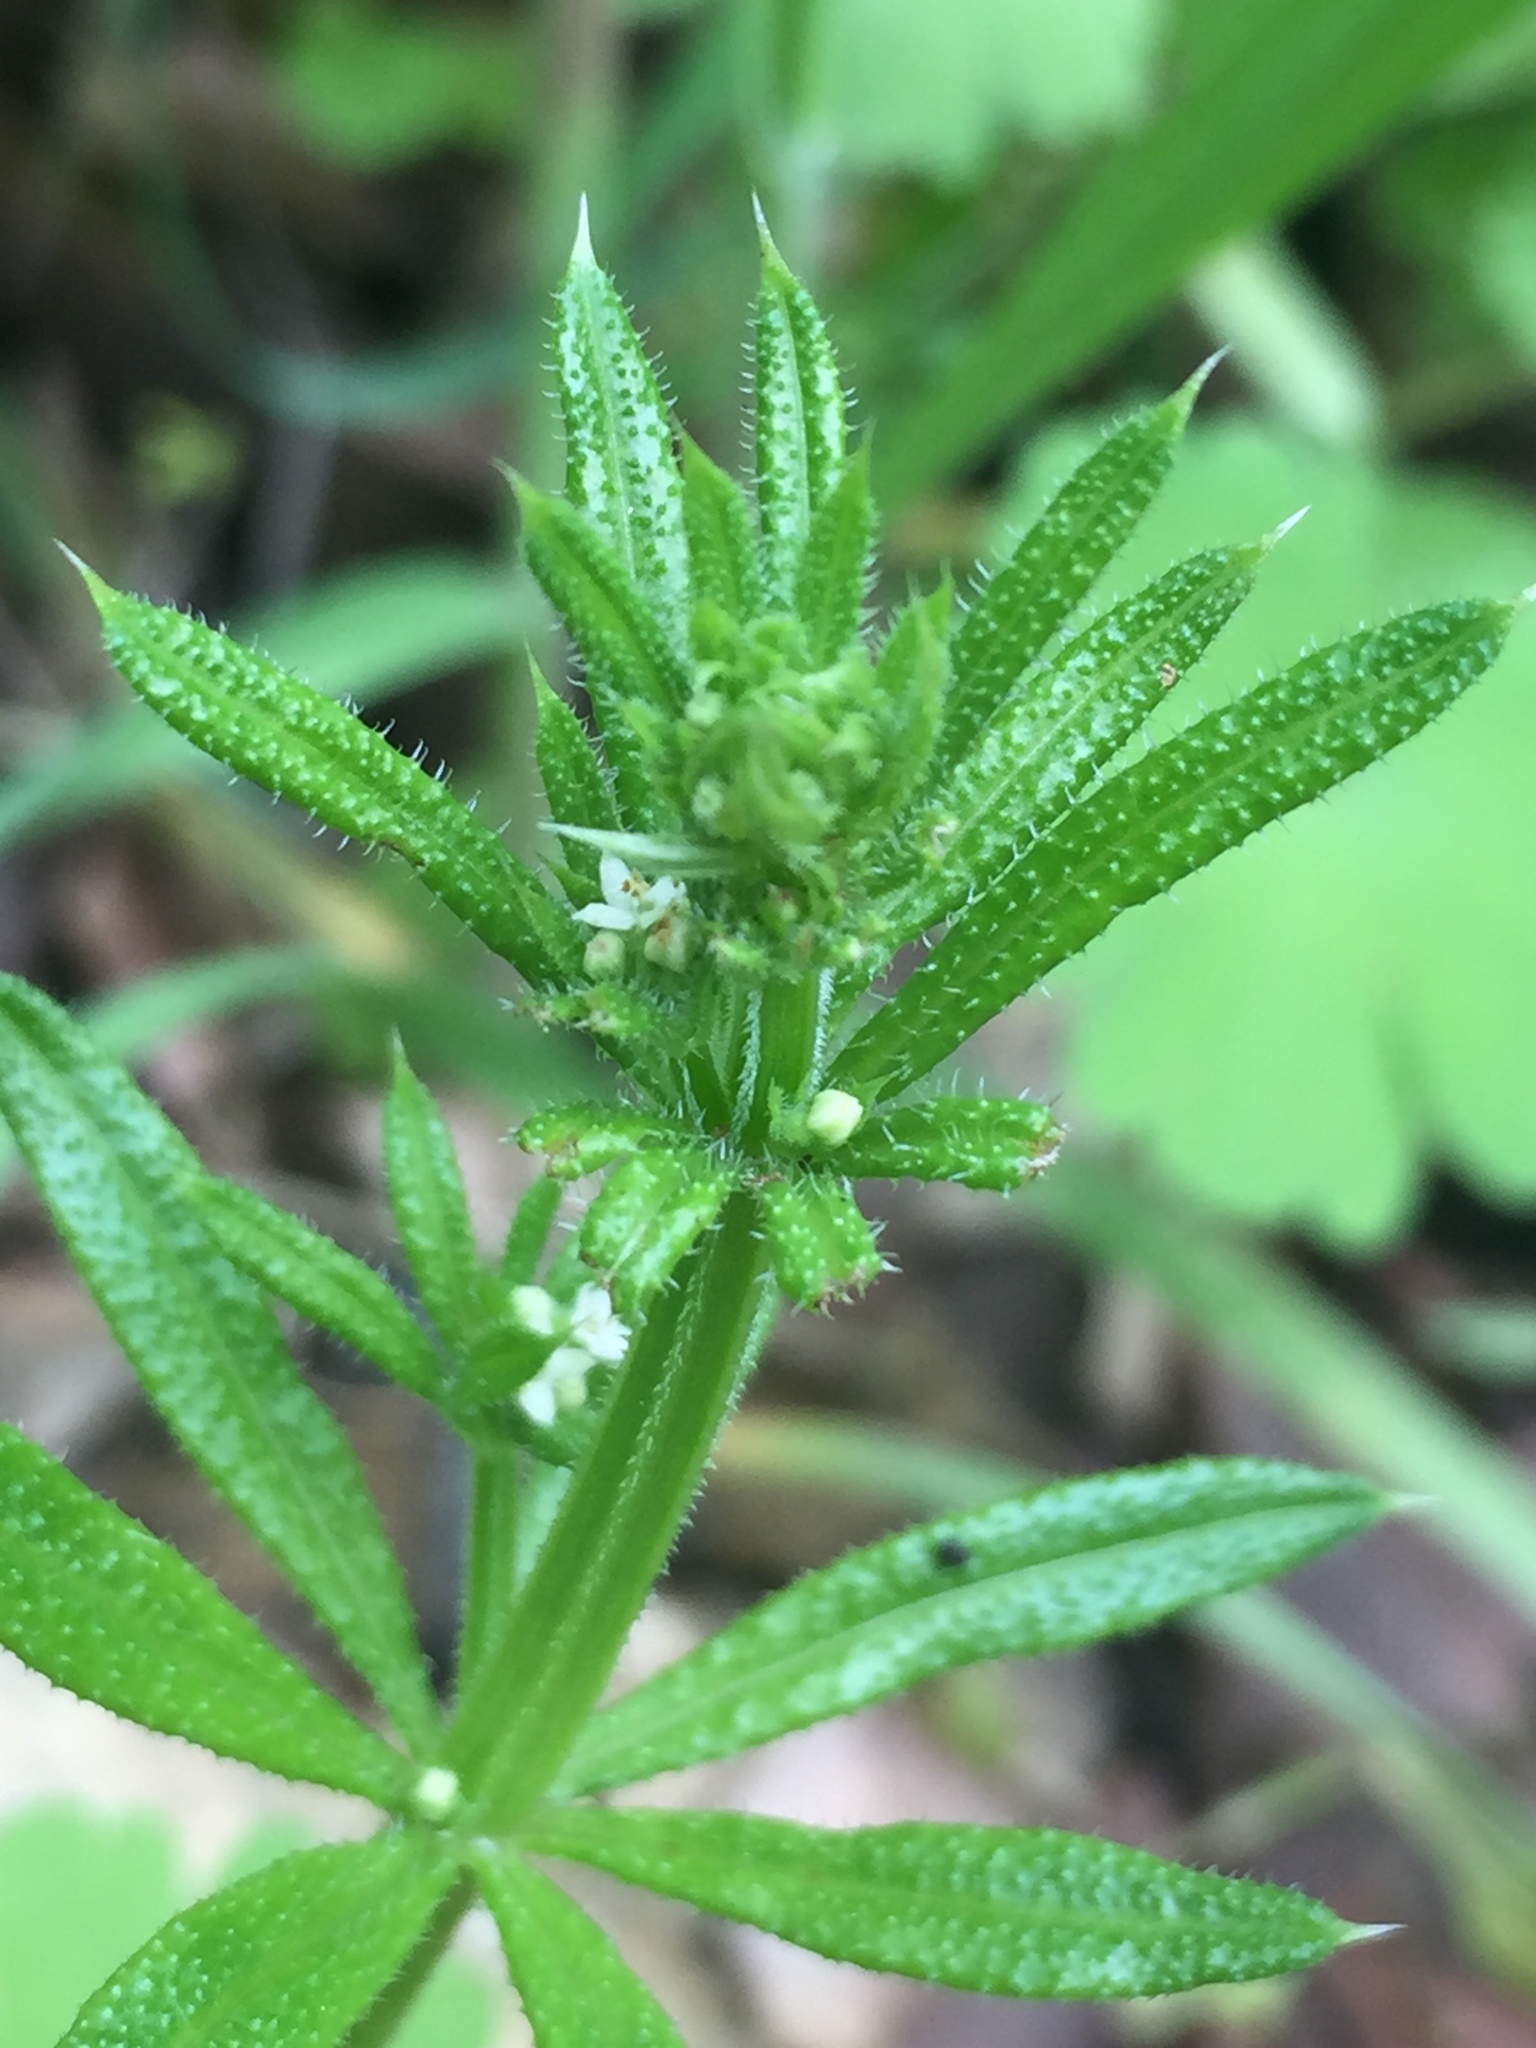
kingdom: Plantae
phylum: Tracheophyta
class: Magnoliopsida
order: Gentianales
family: Rubiaceae
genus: Galium
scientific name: Galium aparine
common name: Cleavers
